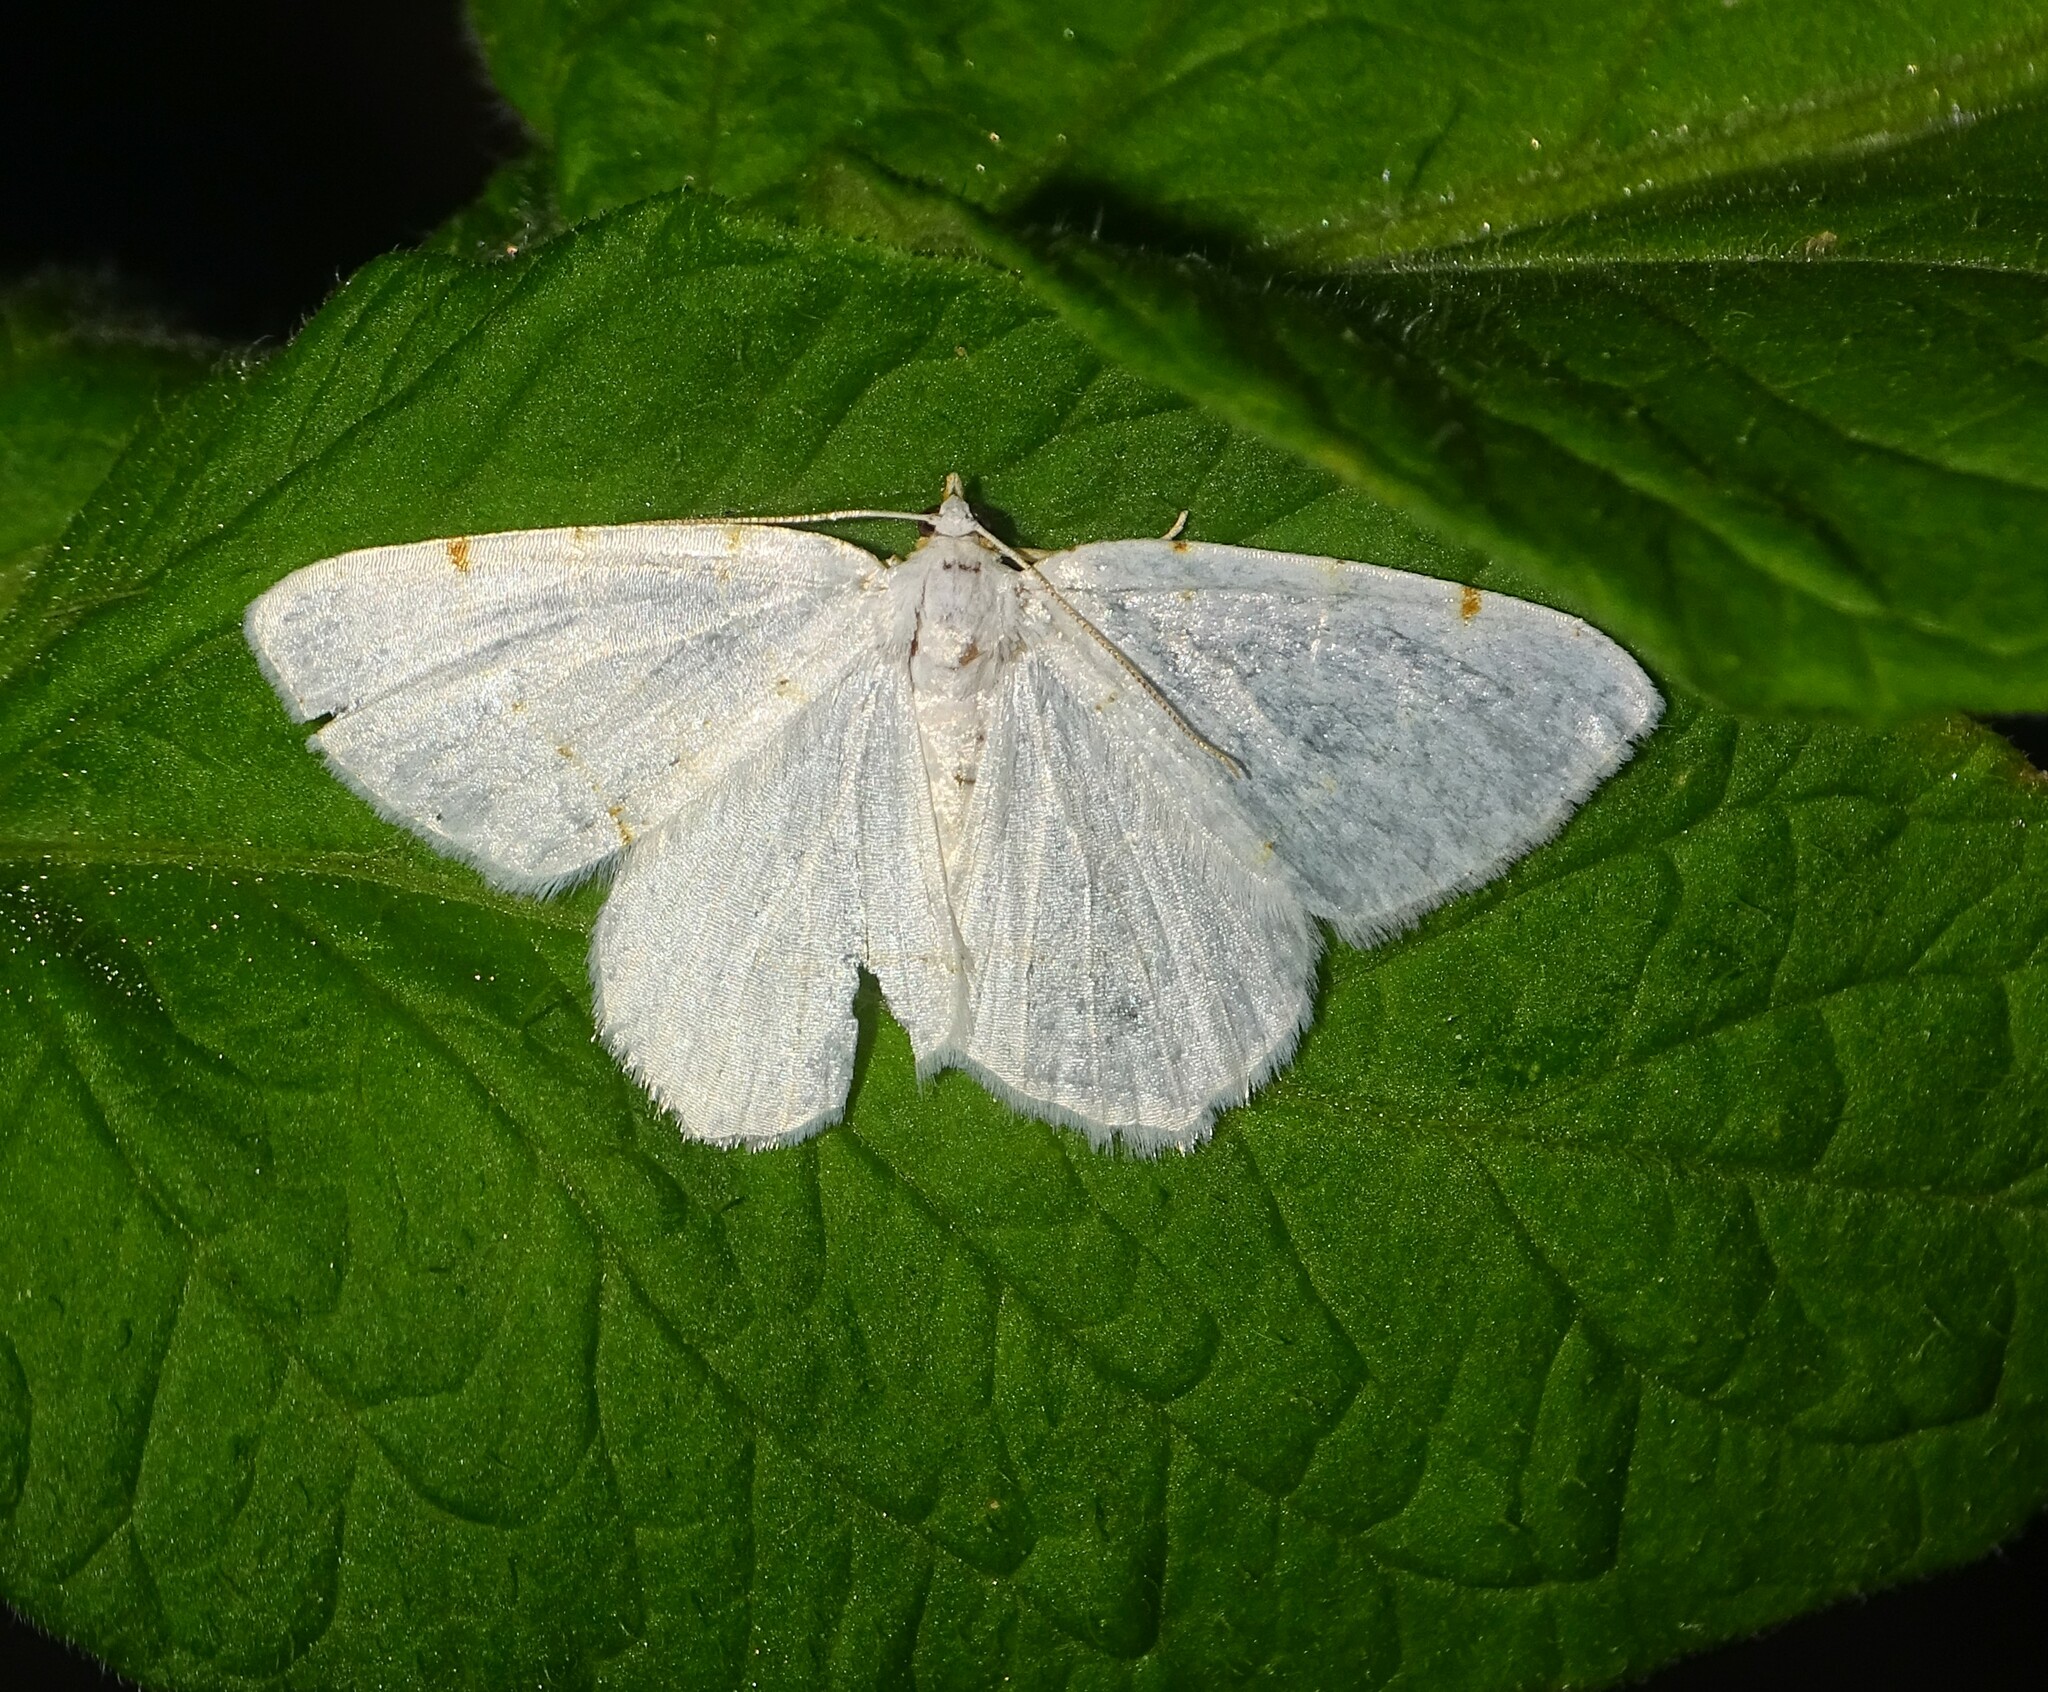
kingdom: Animalia
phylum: Arthropoda
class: Insecta
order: Lepidoptera
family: Geometridae
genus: Macaria
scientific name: Macaria pustularia
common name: Lesser maple spanworm moth
